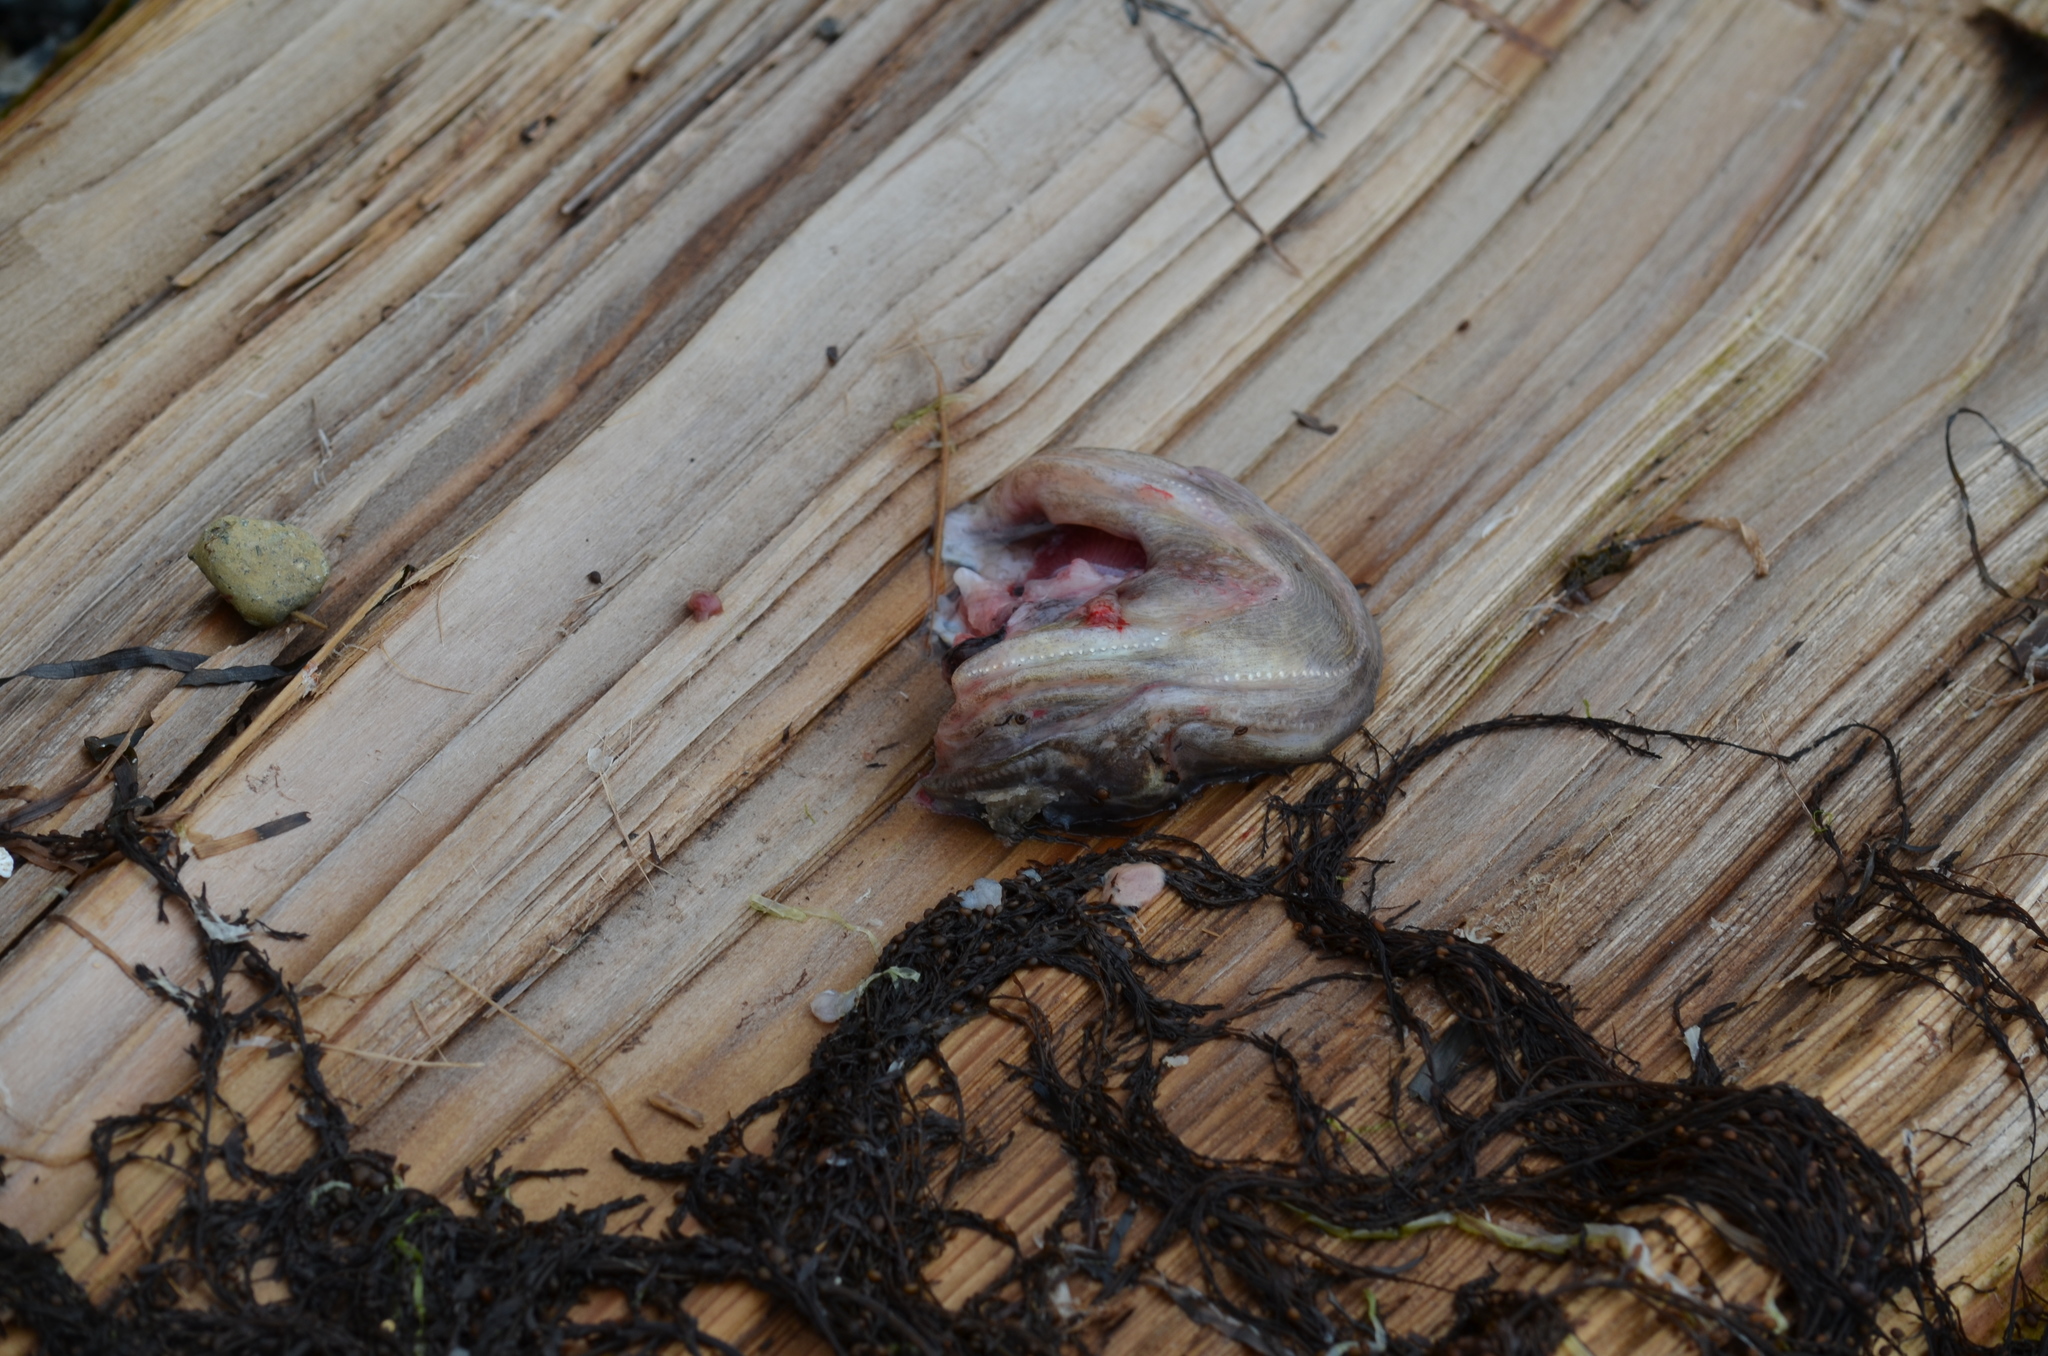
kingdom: Animalia
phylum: Chordata
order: Batrachoidiformes
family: Batrachoididae
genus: Porichthys
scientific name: Porichthys notatus
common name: Plainfin midshipman
